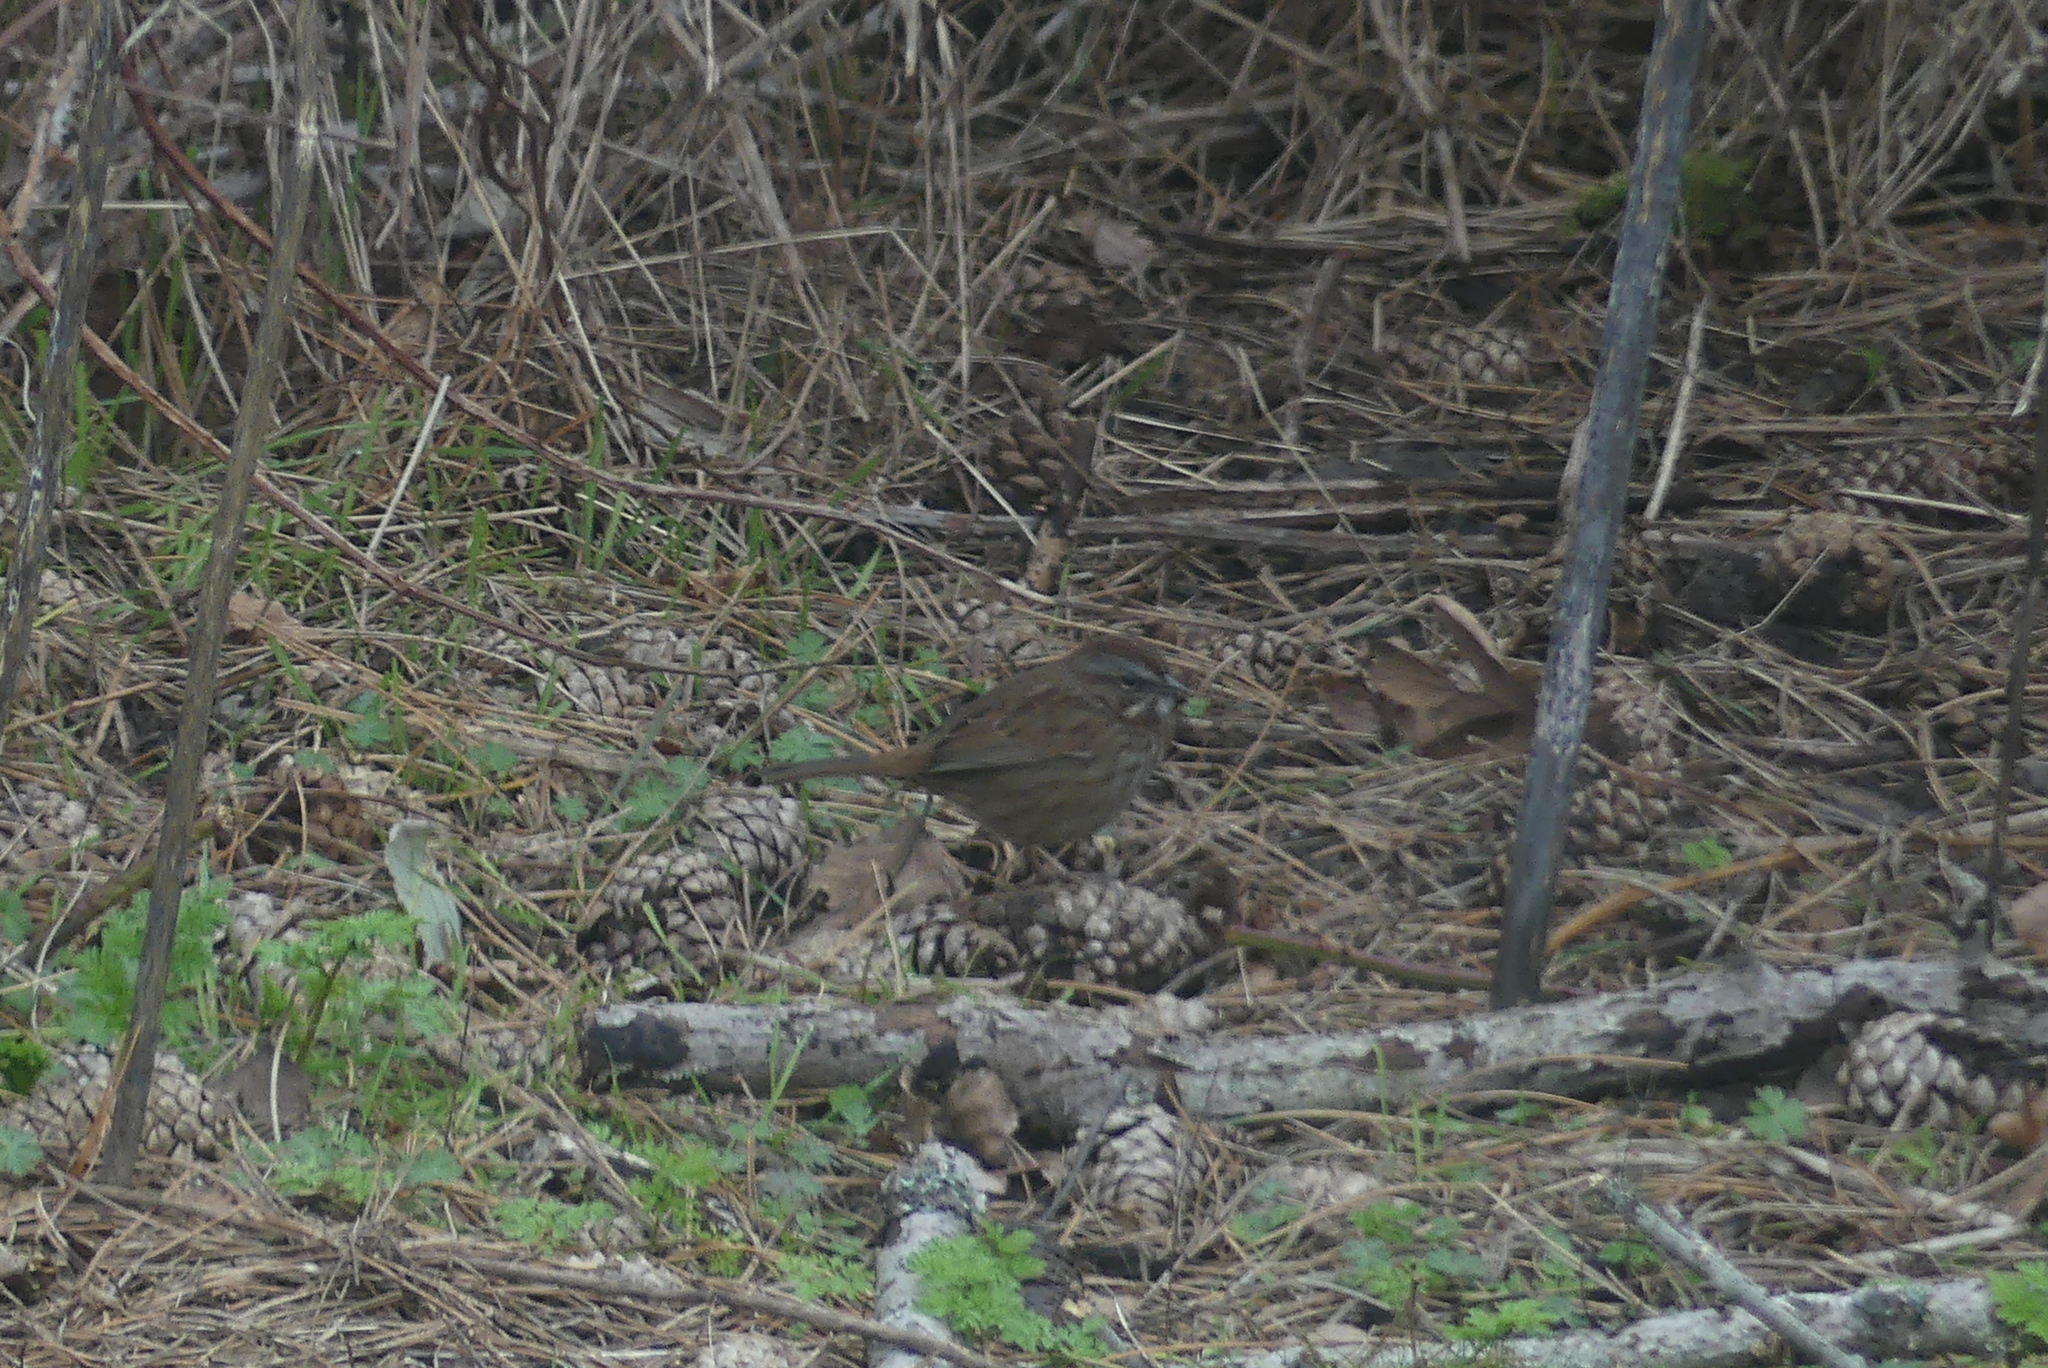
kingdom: Animalia
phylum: Chordata
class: Aves
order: Passeriformes
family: Passerellidae
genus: Melospiza
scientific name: Melospiza melodia
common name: Song sparrow
